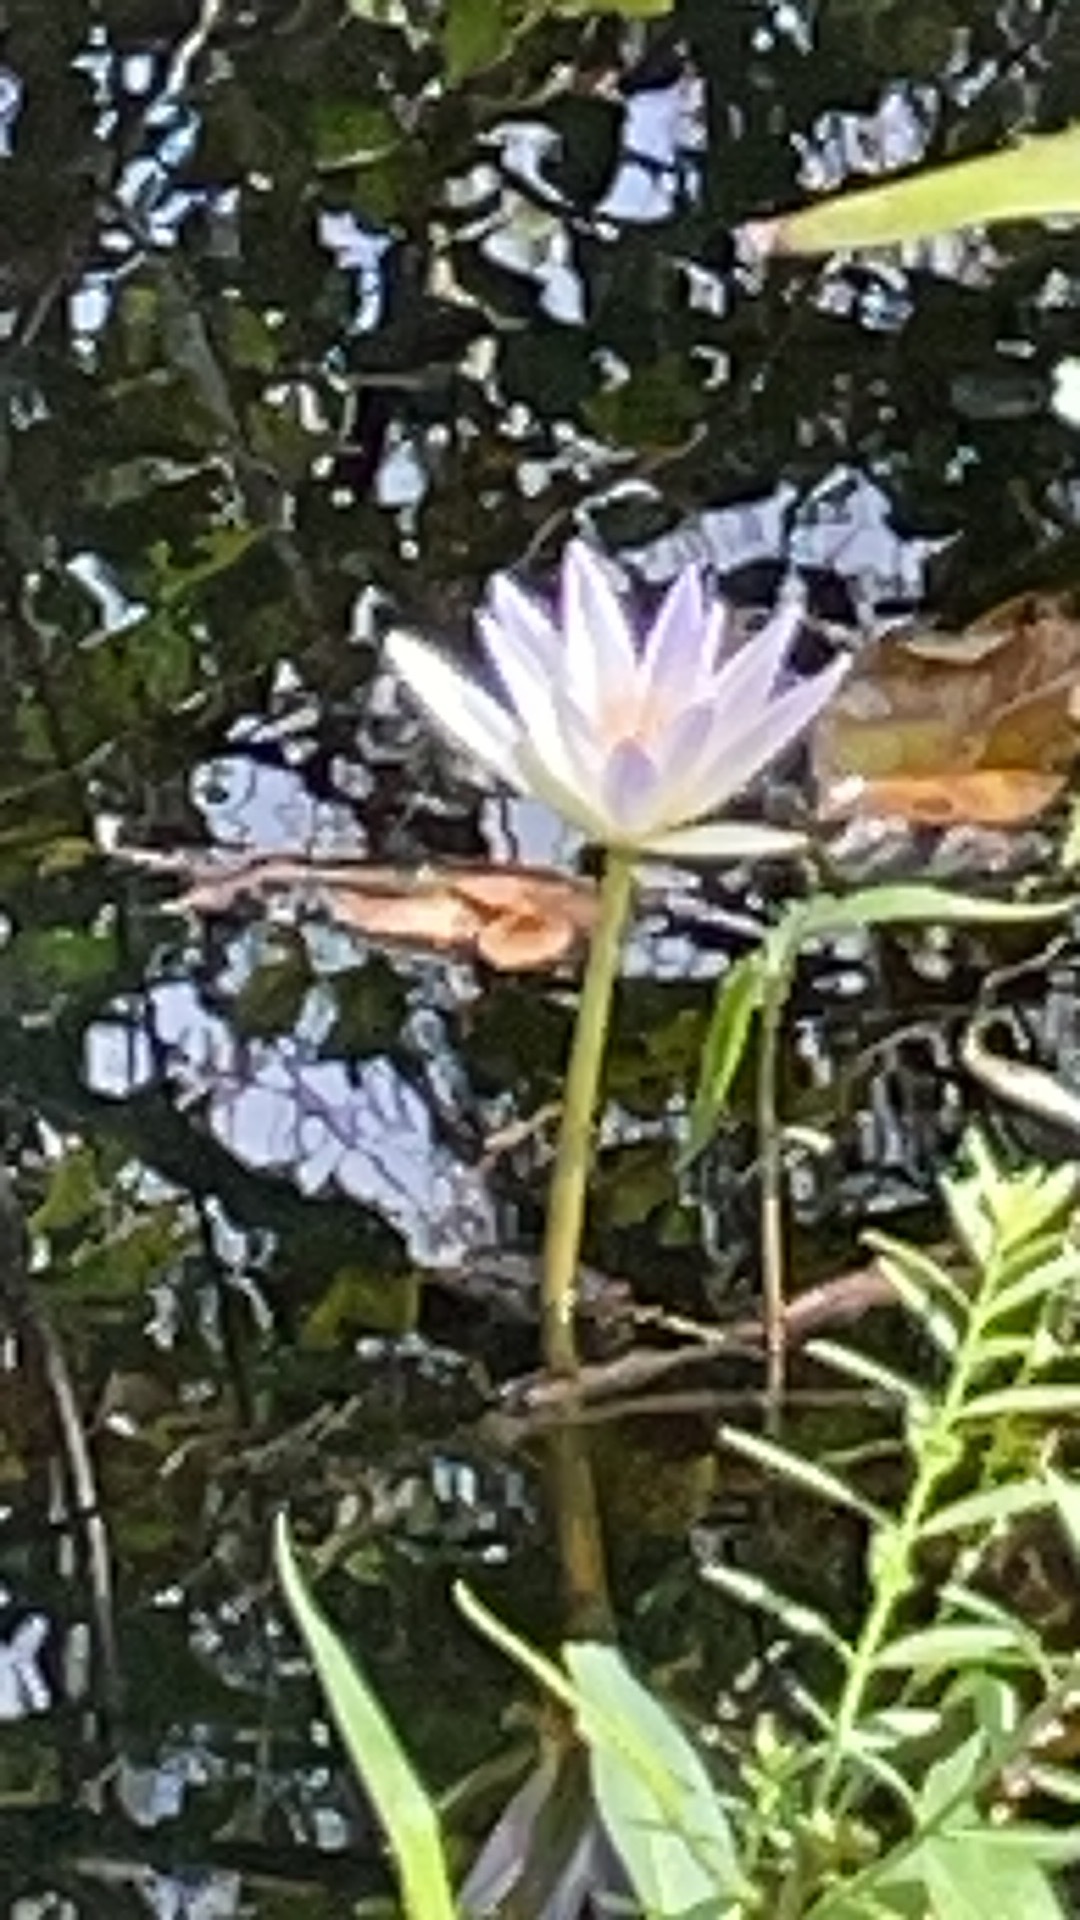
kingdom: Plantae
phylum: Tracheophyta
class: Magnoliopsida
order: Nymphaeales
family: Nymphaeaceae
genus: Nymphaea
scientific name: Nymphaea elegans
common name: Blue water-lily
